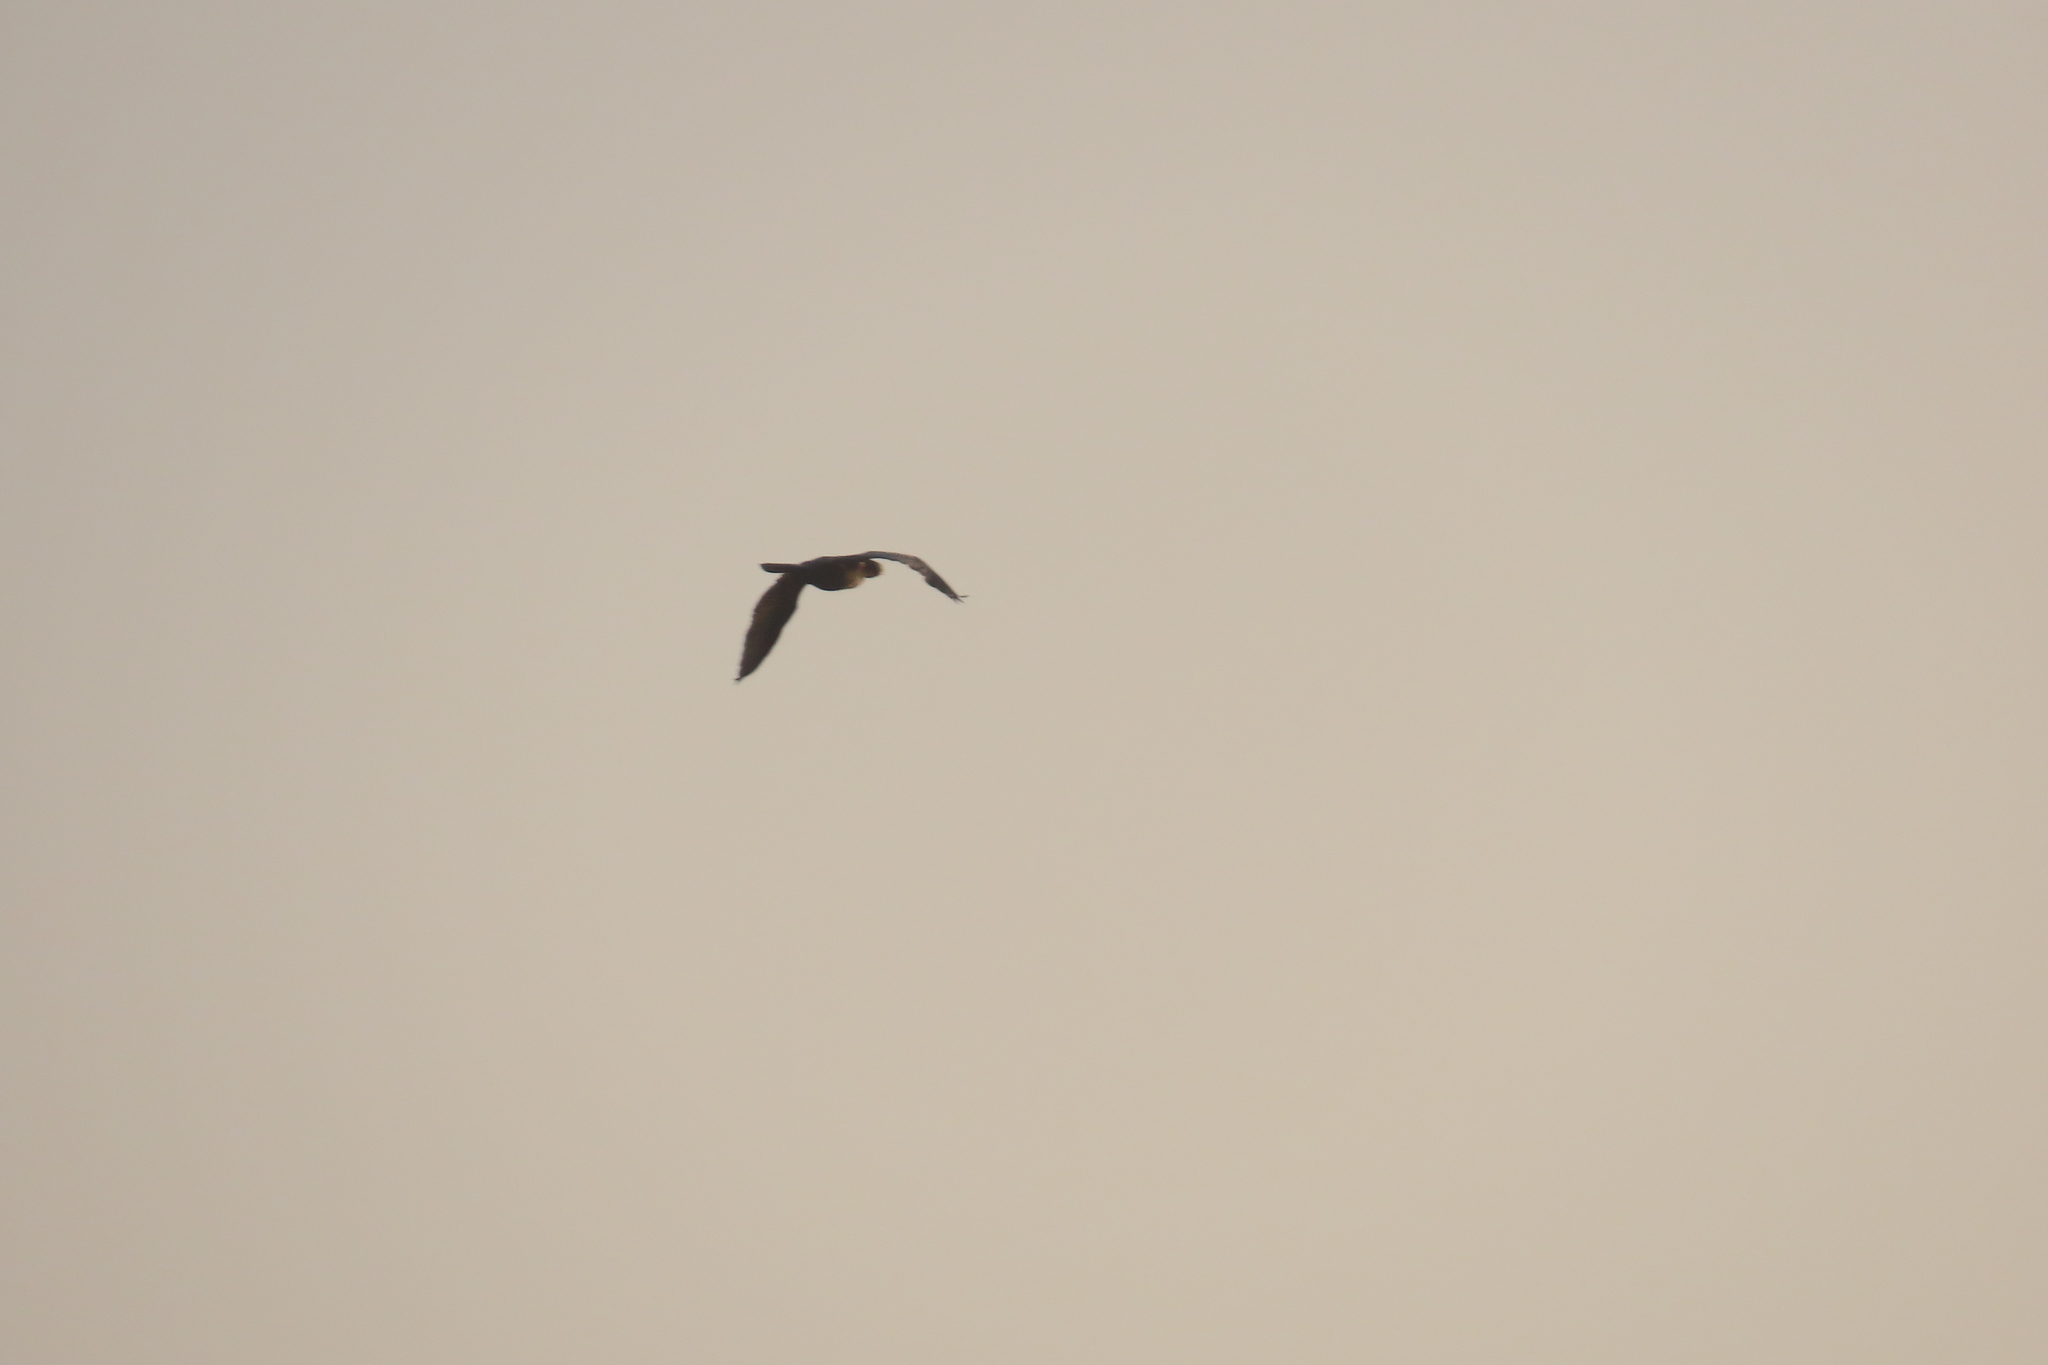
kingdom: Animalia
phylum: Chordata
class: Aves
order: Suliformes
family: Phalacrocoracidae
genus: Microcarbo
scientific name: Microcarbo niger
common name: Little cormorant
